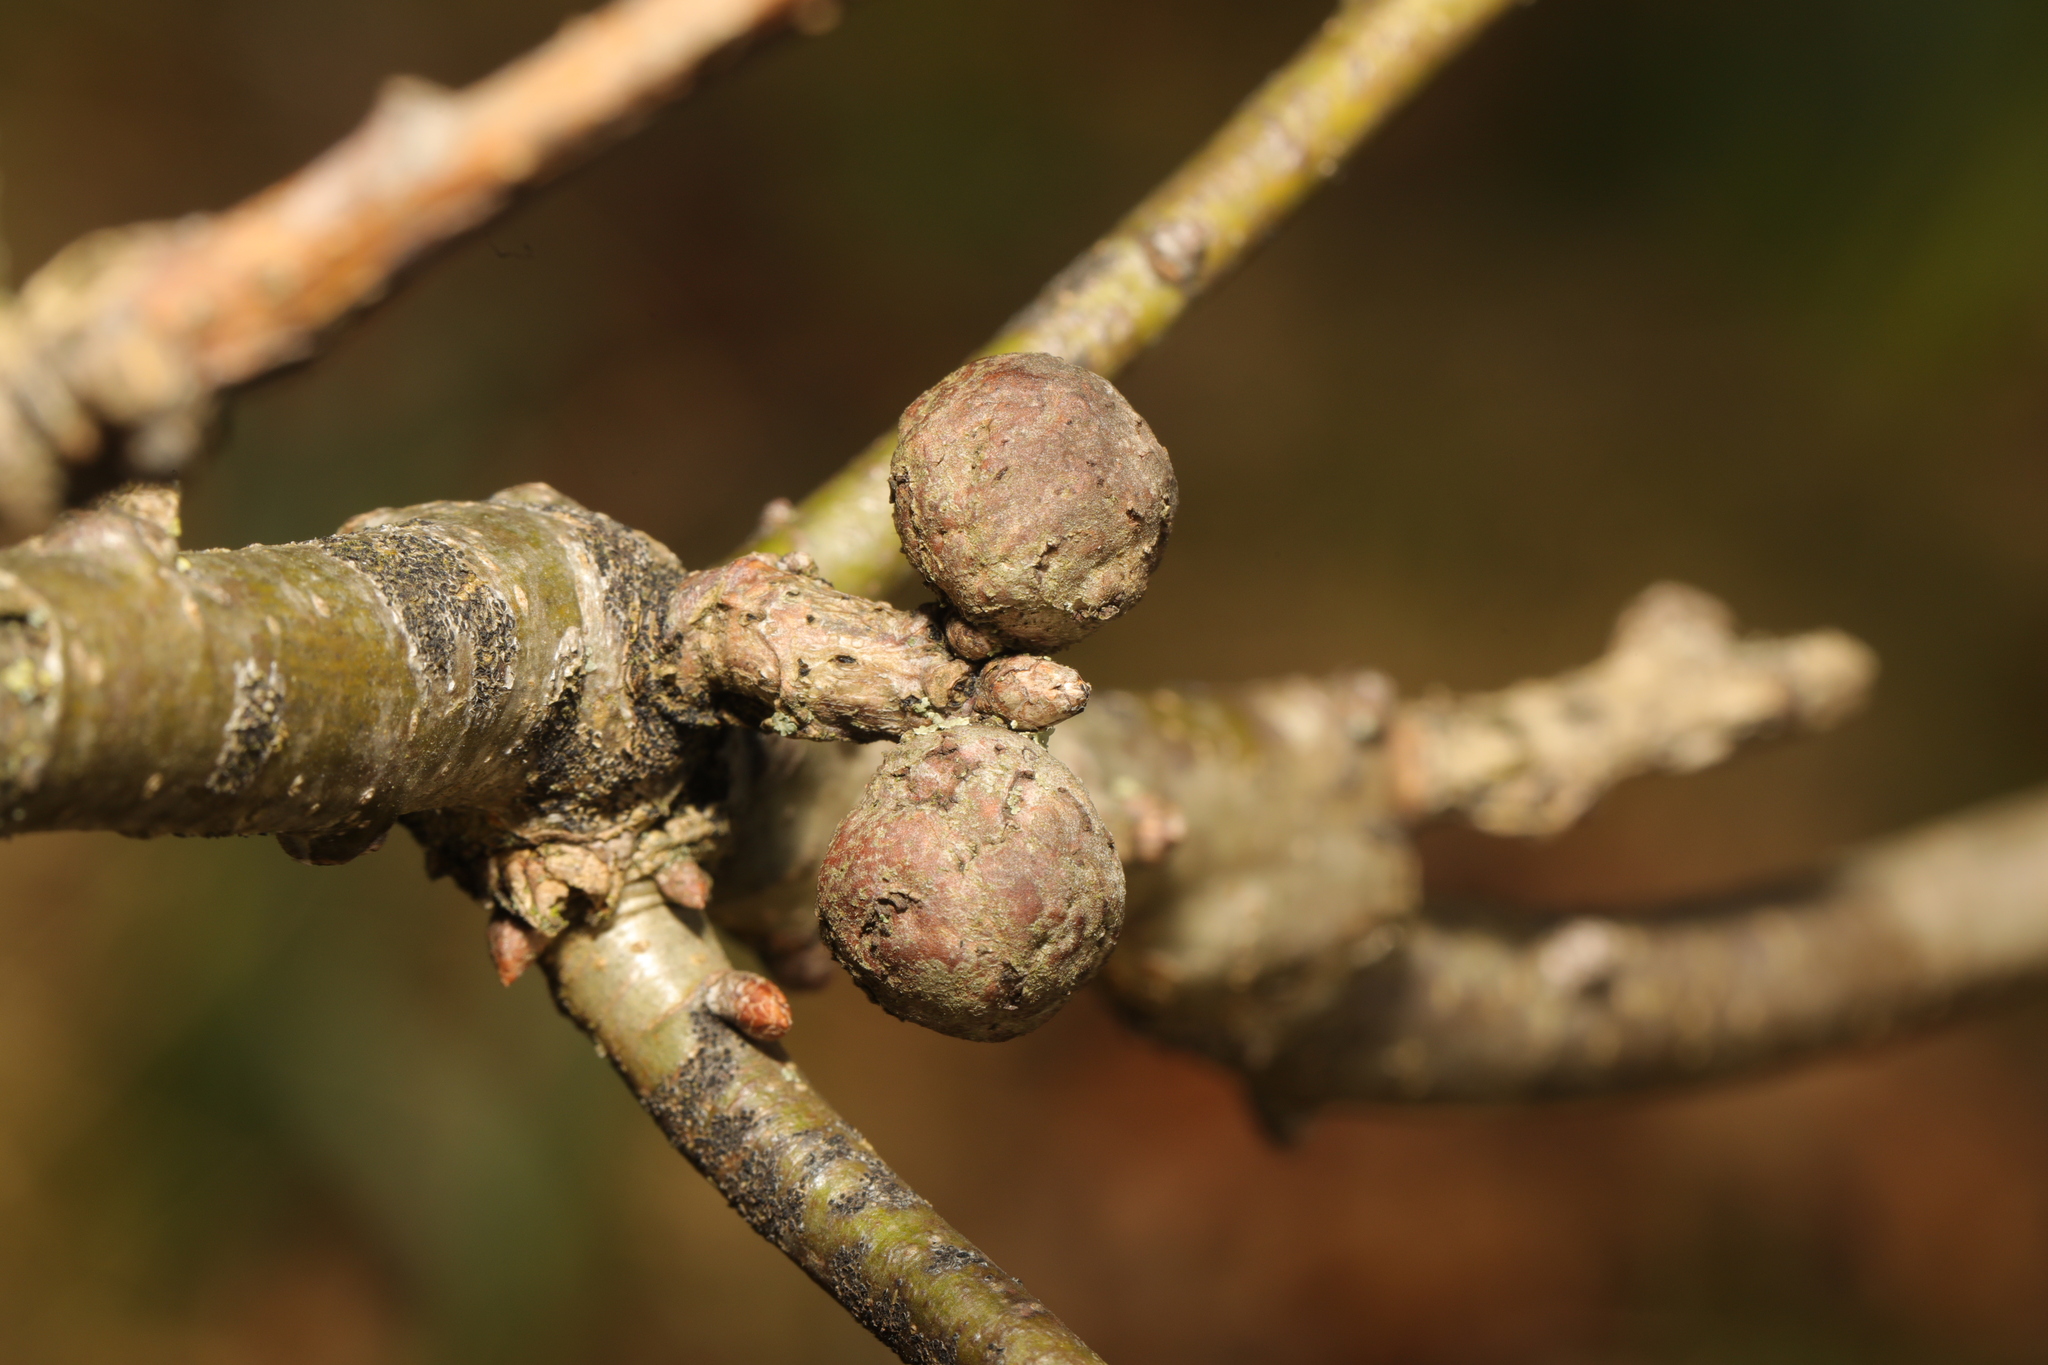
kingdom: Animalia
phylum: Arthropoda
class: Insecta
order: Hymenoptera
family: Cynipidae
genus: Andricus
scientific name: Andricus lignicolus
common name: Cola-nut gall
